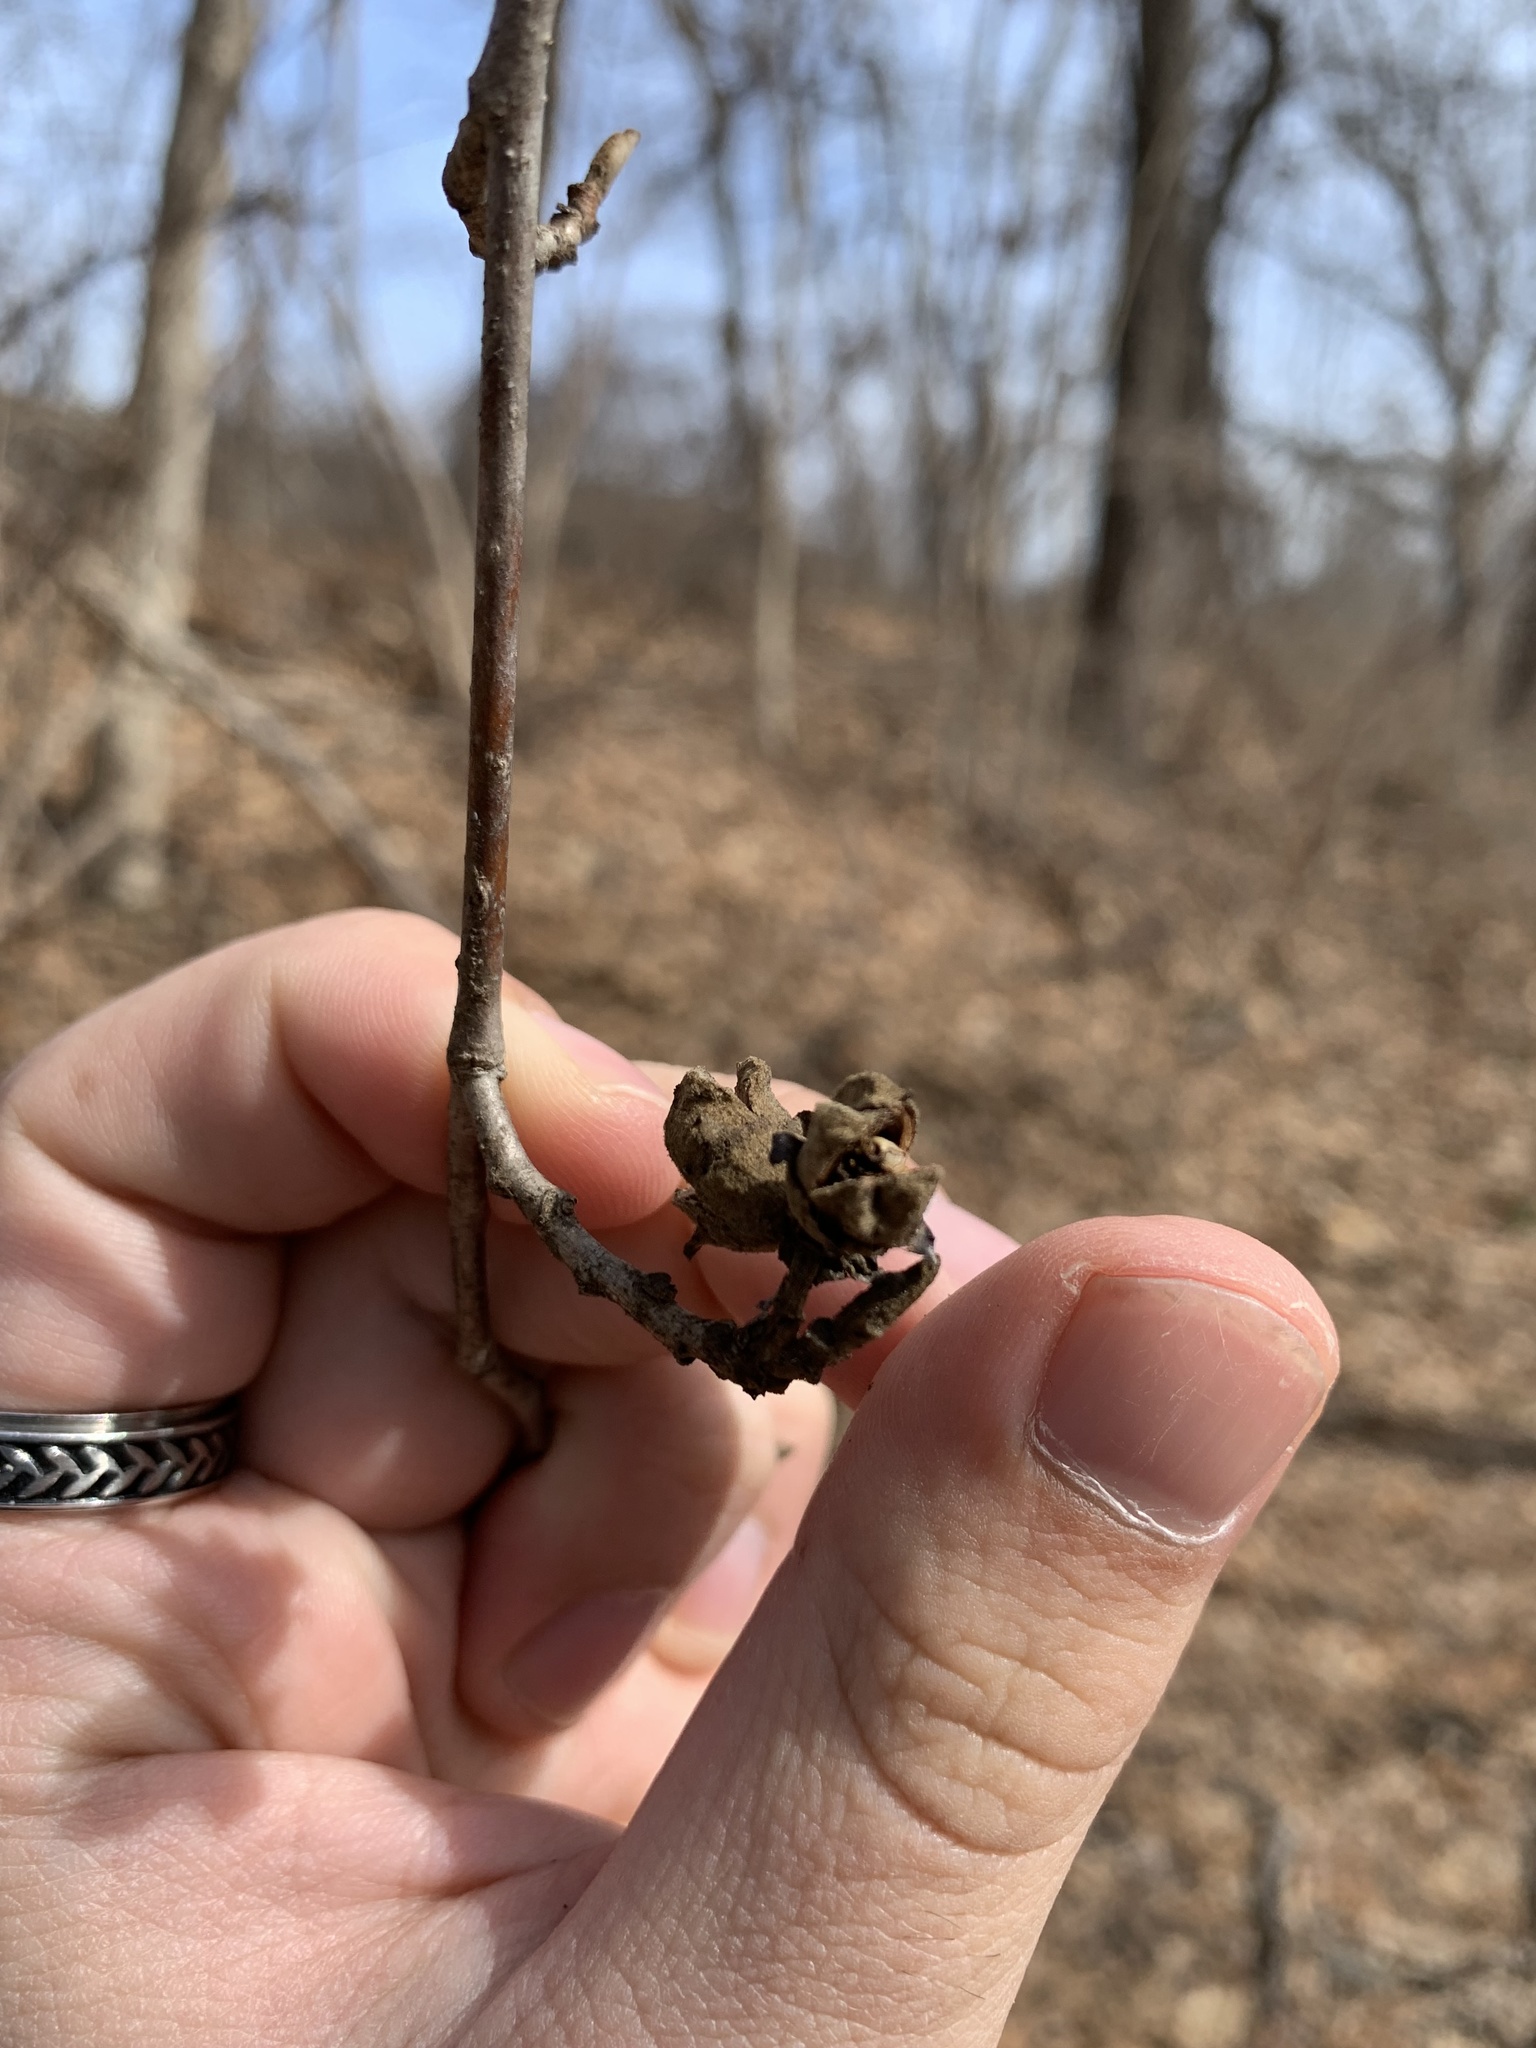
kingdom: Plantae
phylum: Tracheophyta
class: Magnoliopsida
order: Saxifragales
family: Hamamelidaceae
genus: Hamamelis
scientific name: Hamamelis virginiana
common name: Witch-hazel
